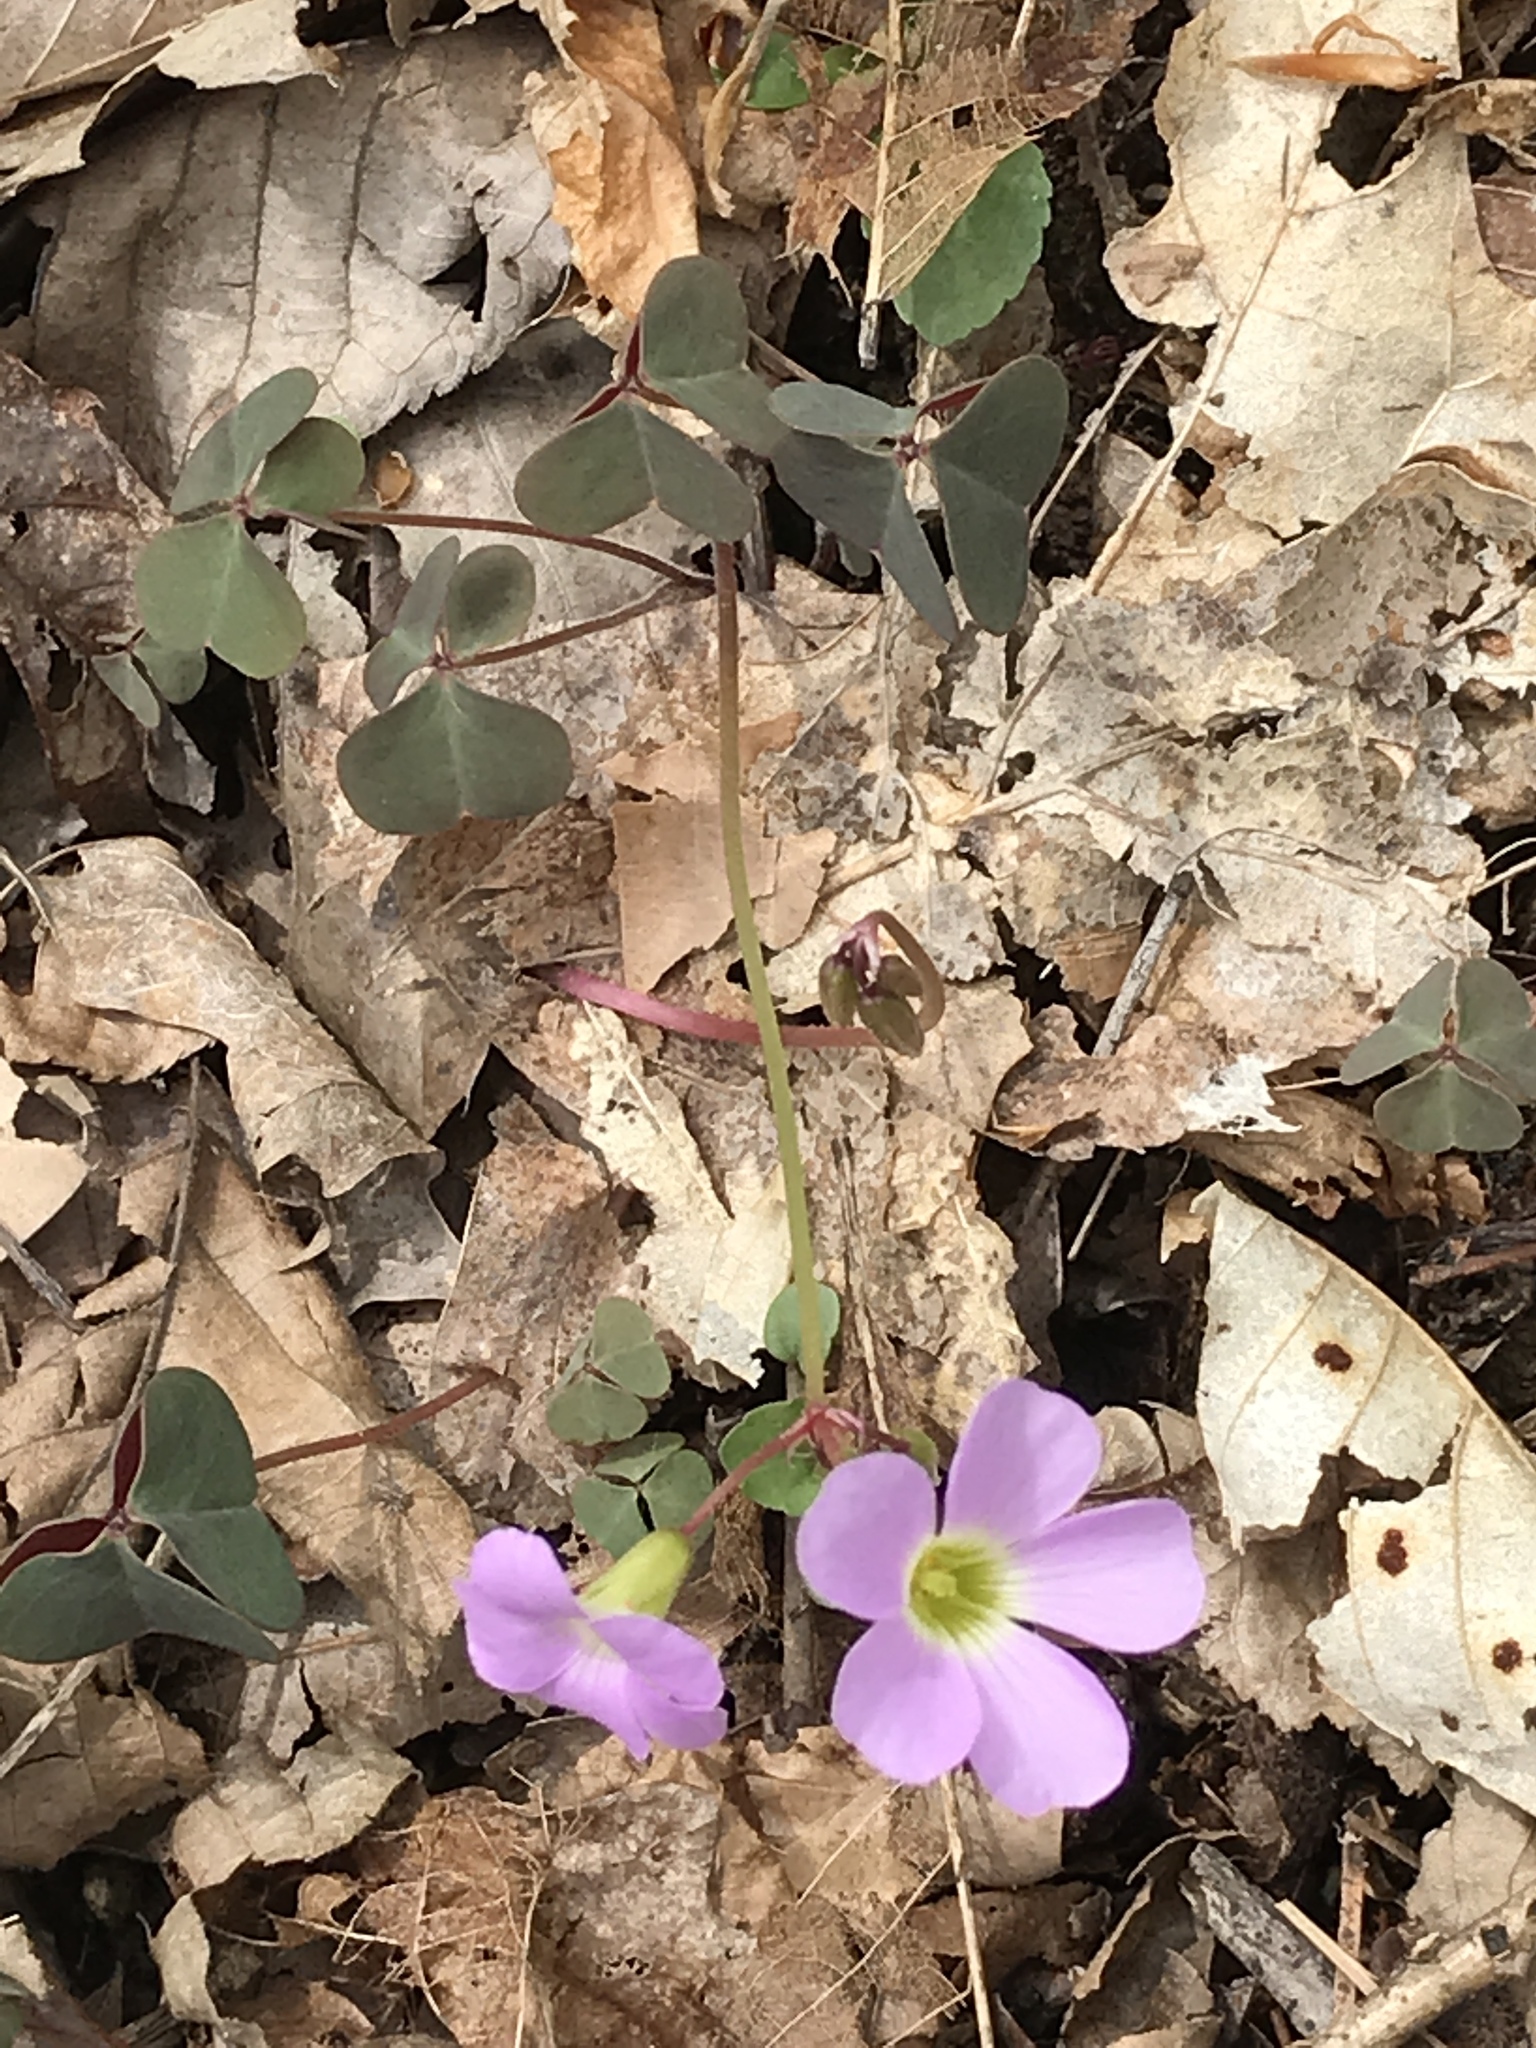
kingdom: Plantae
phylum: Tracheophyta
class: Magnoliopsida
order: Oxalidales
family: Oxalidaceae
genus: Oxalis
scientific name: Oxalis violacea
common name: Violet wood-sorrel
